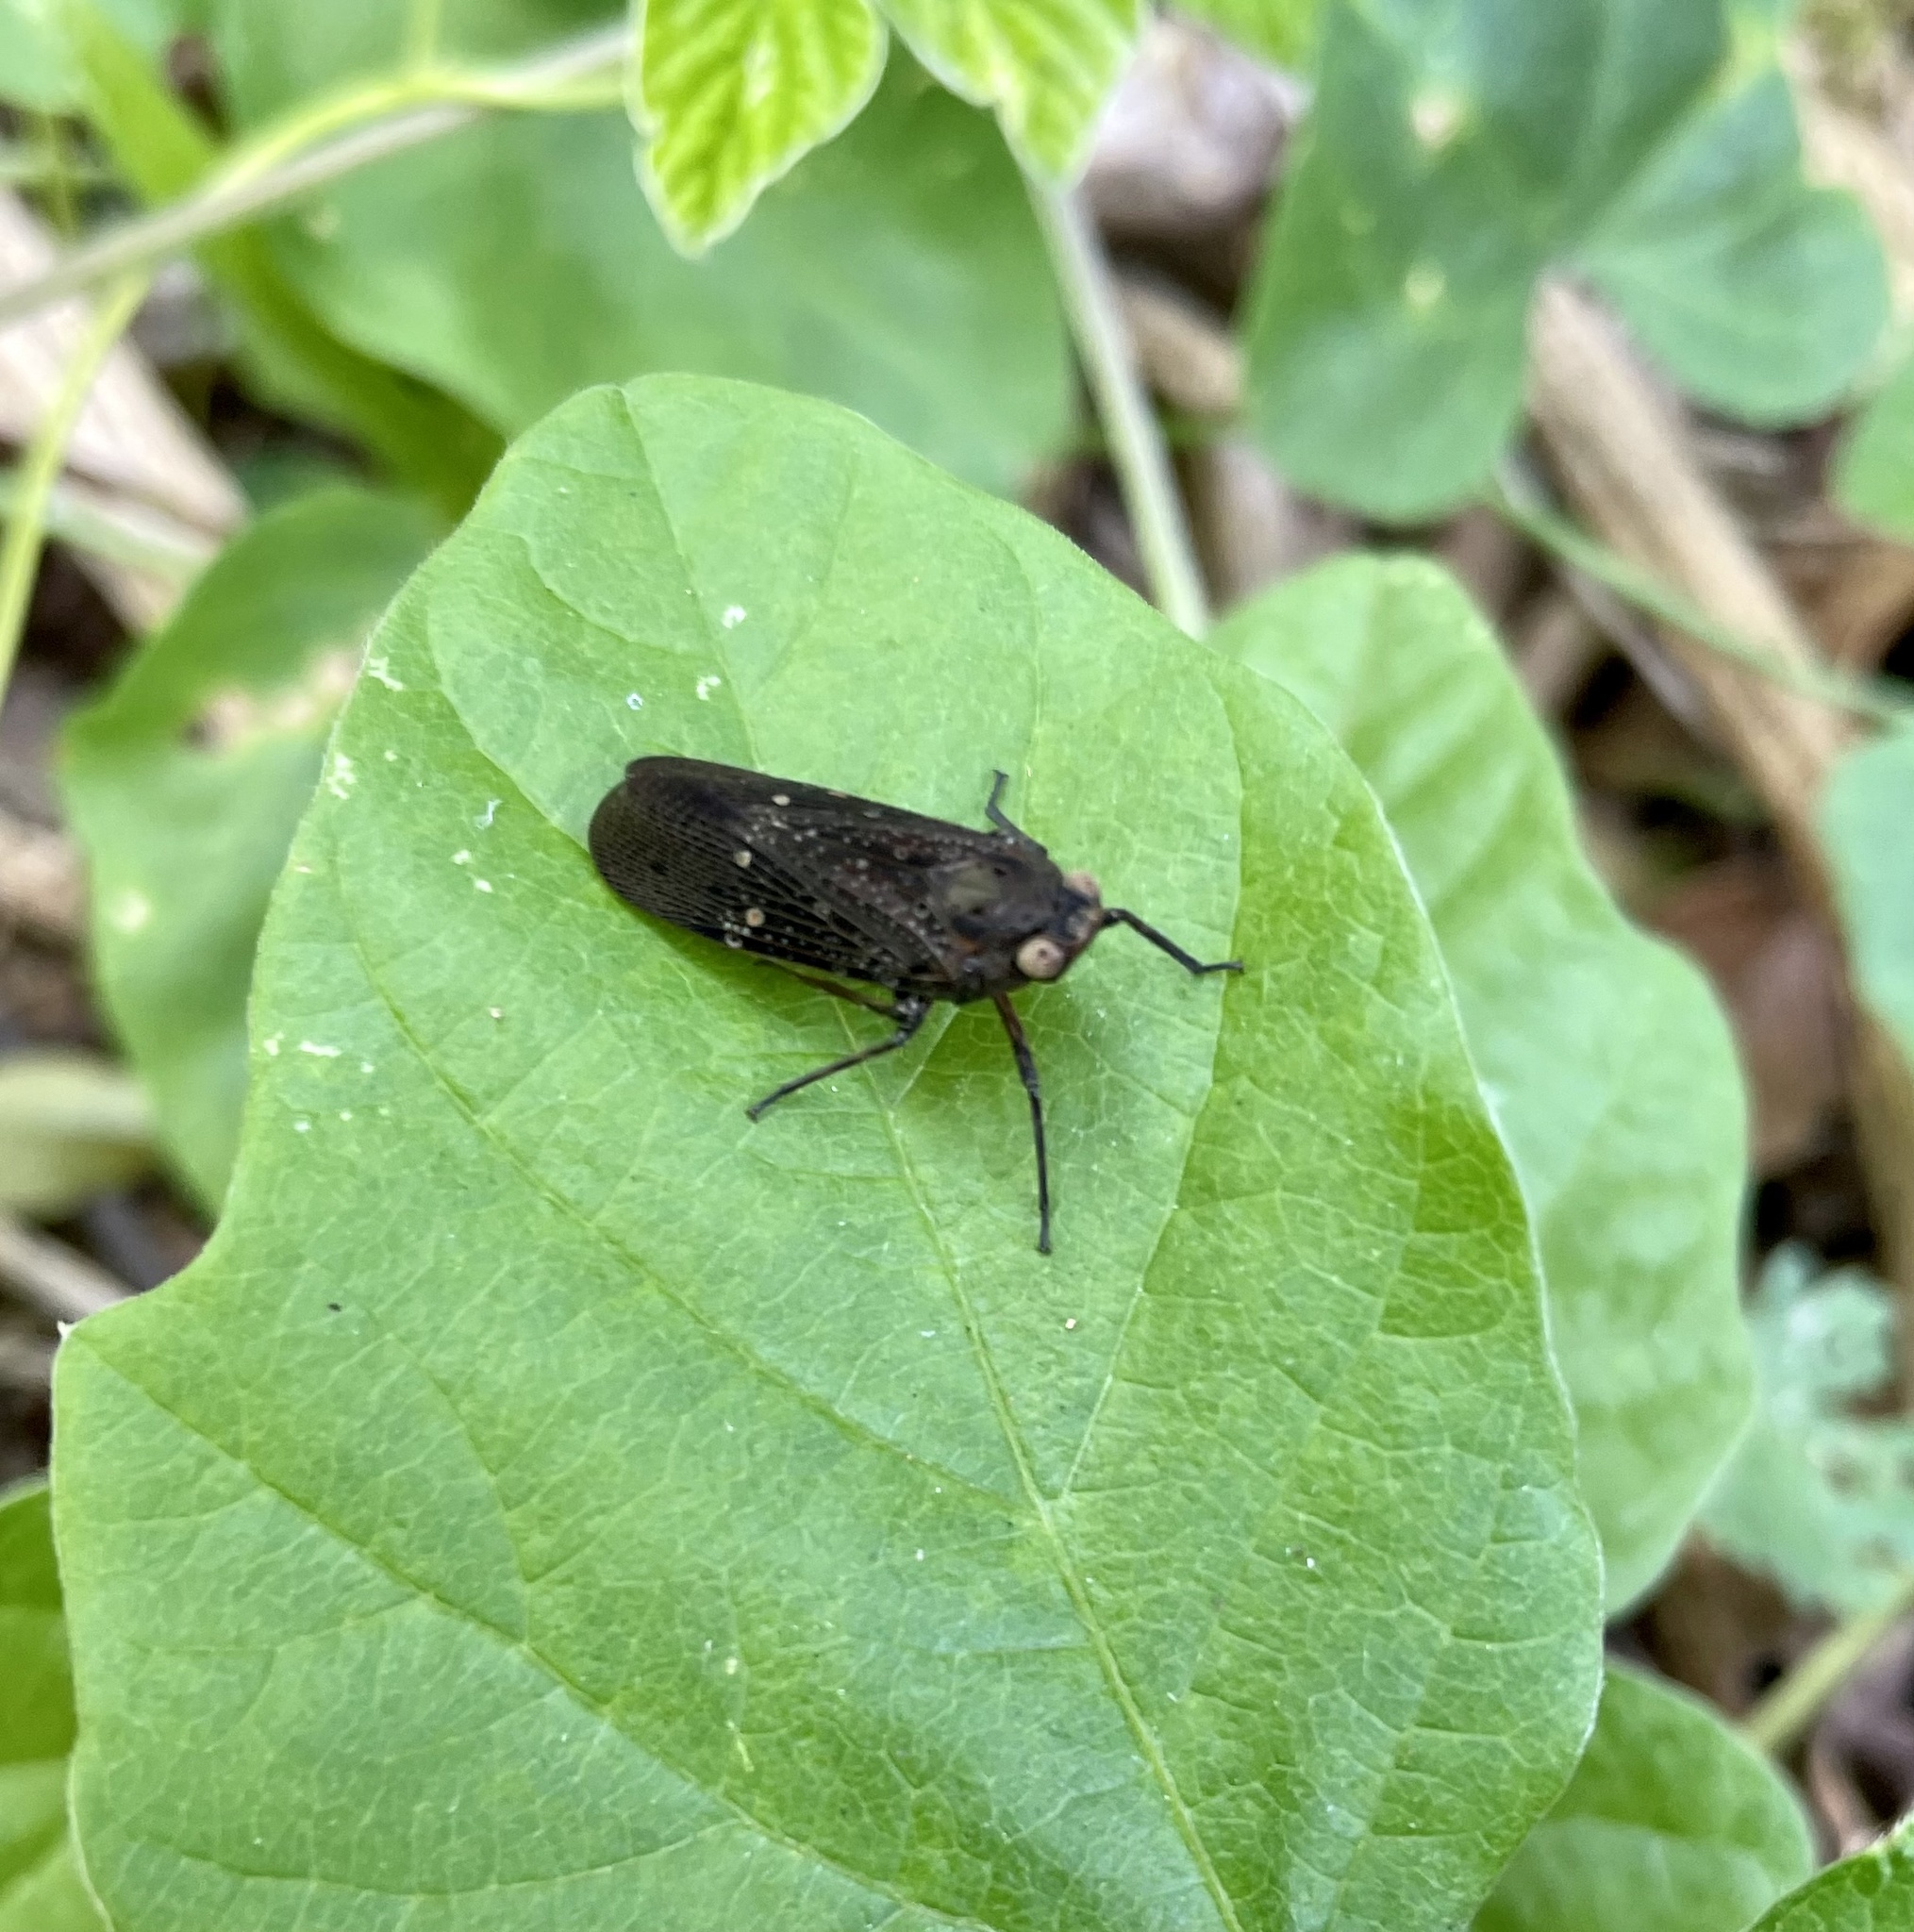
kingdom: Animalia
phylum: Arthropoda
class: Insecta
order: Hemiptera
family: Fulgoridae
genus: Desudaba
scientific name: Desudaba aulica
